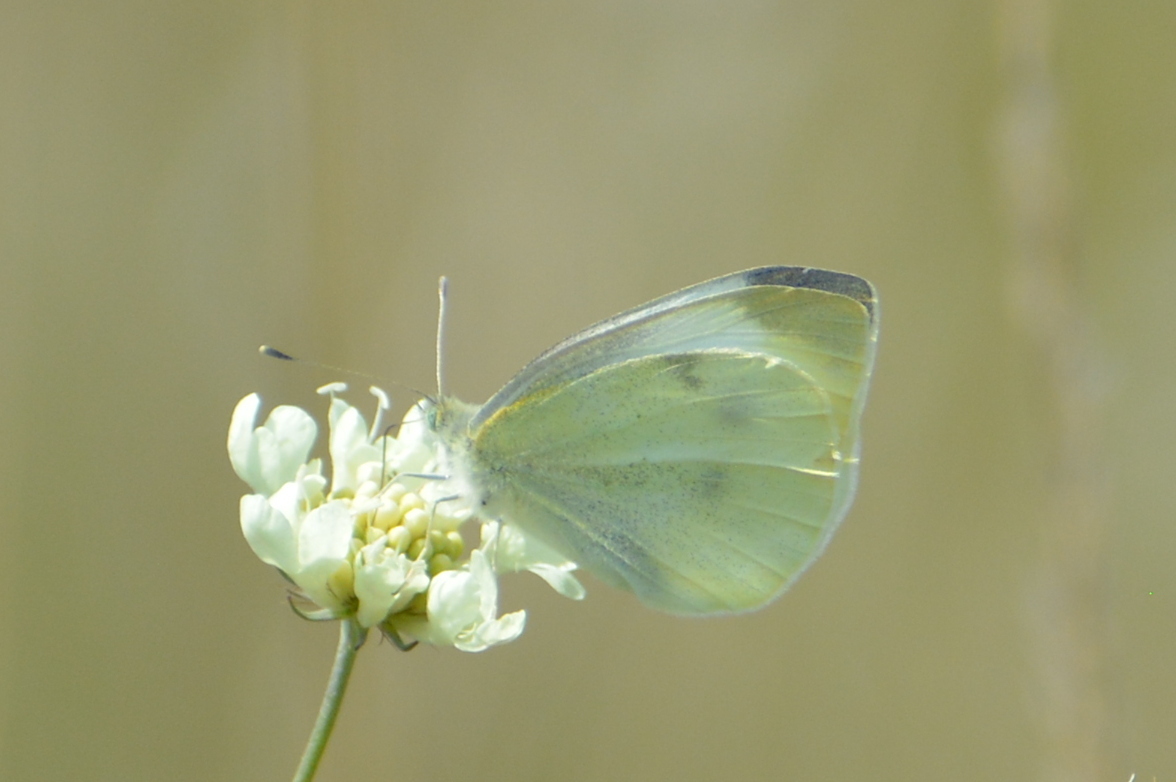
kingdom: Animalia
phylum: Arthropoda
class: Insecta
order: Lepidoptera
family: Pieridae
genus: Pieris
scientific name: Pieris rapae
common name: Small white
